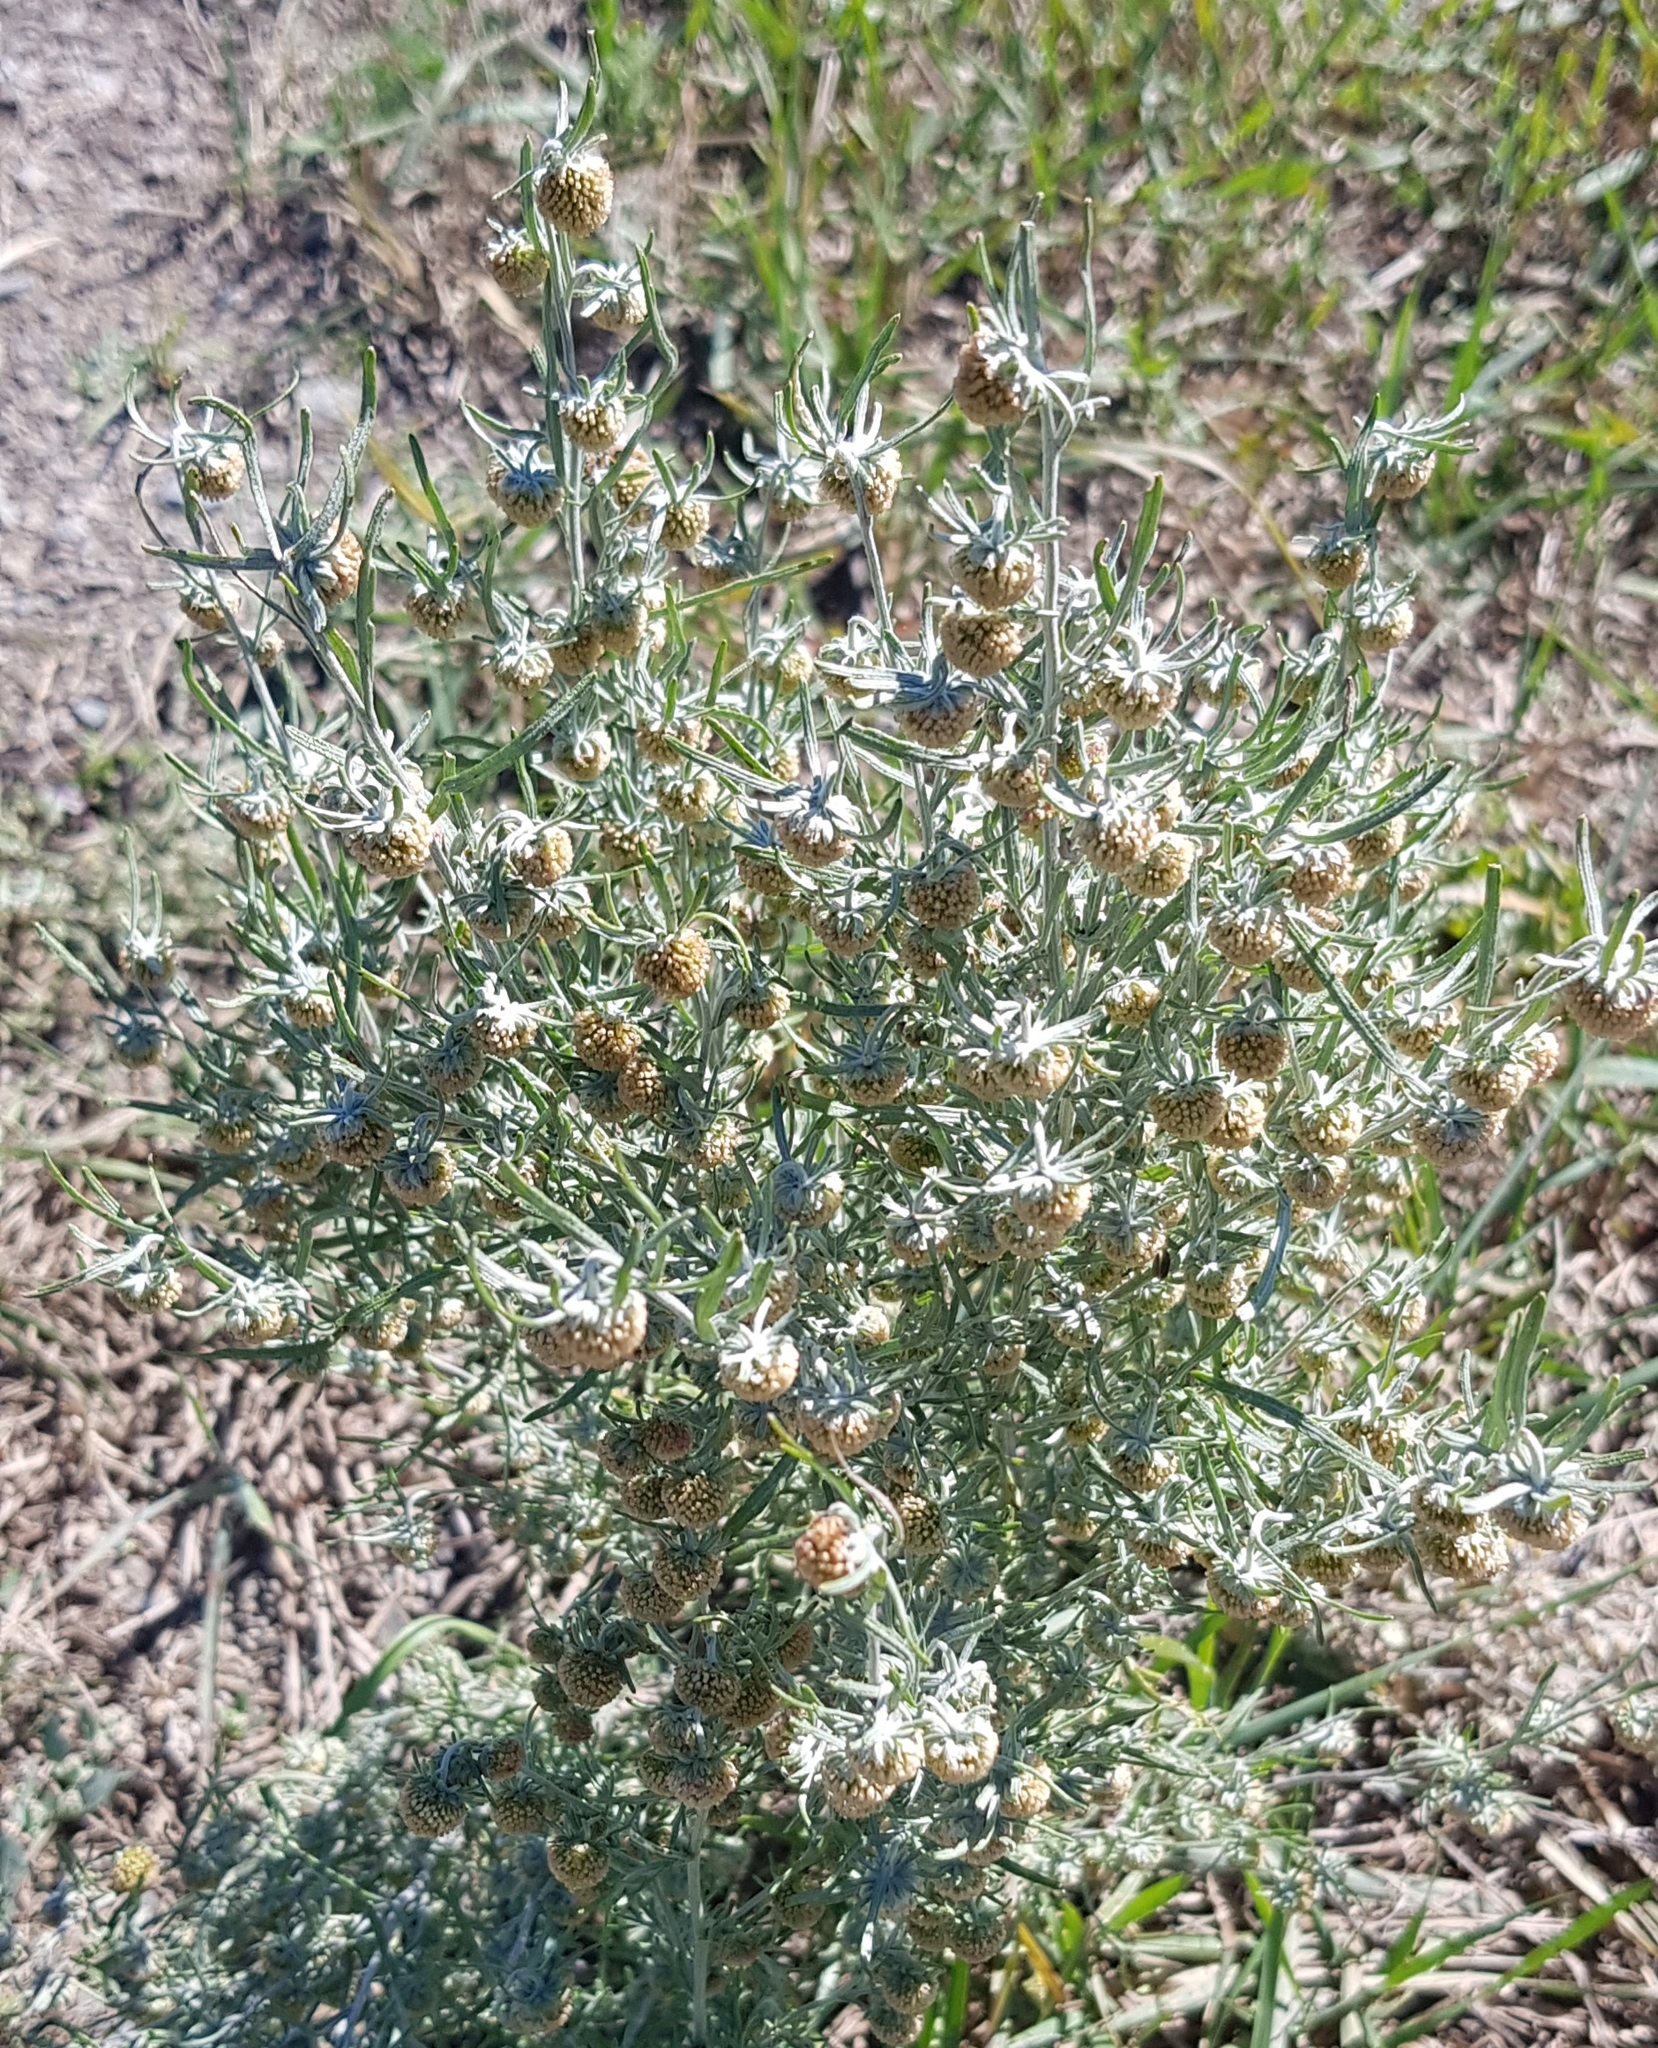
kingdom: Plantae
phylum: Tracheophyta
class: Magnoliopsida
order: Asterales
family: Asteraceae
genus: Artemisia
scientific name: Artemisia macrocephala
